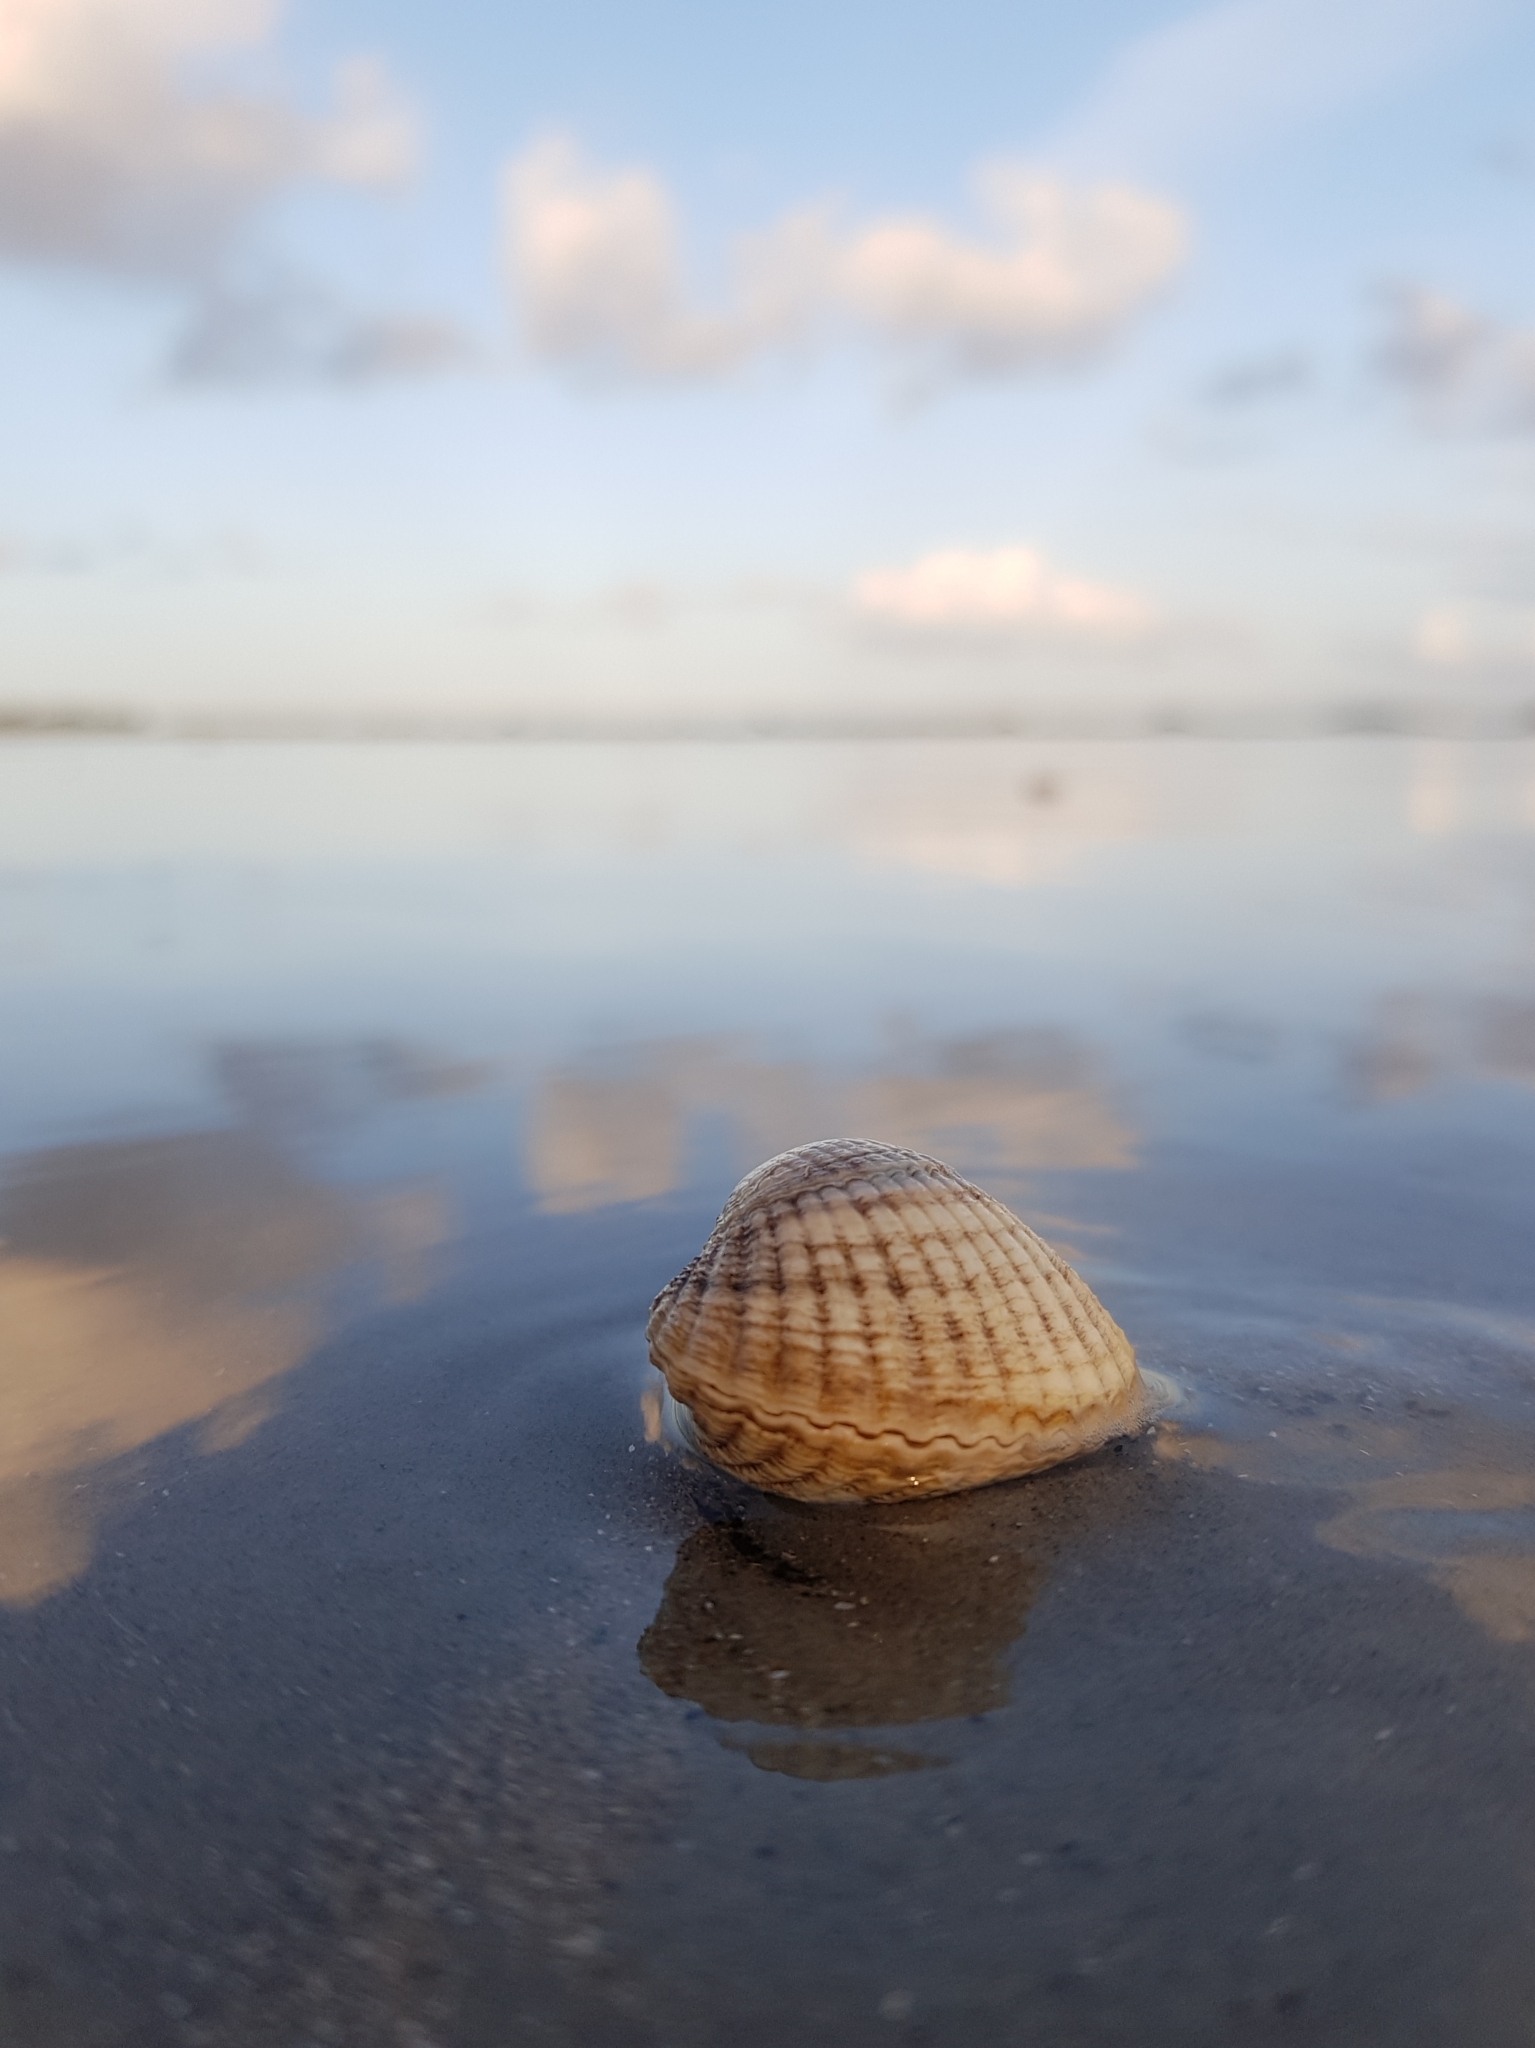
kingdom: Animalia
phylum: Mollusca
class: Bivalvia
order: Cardiida
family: Cardiidae
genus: Cerastoderma
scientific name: Cerastoderma edule
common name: Common cockle
